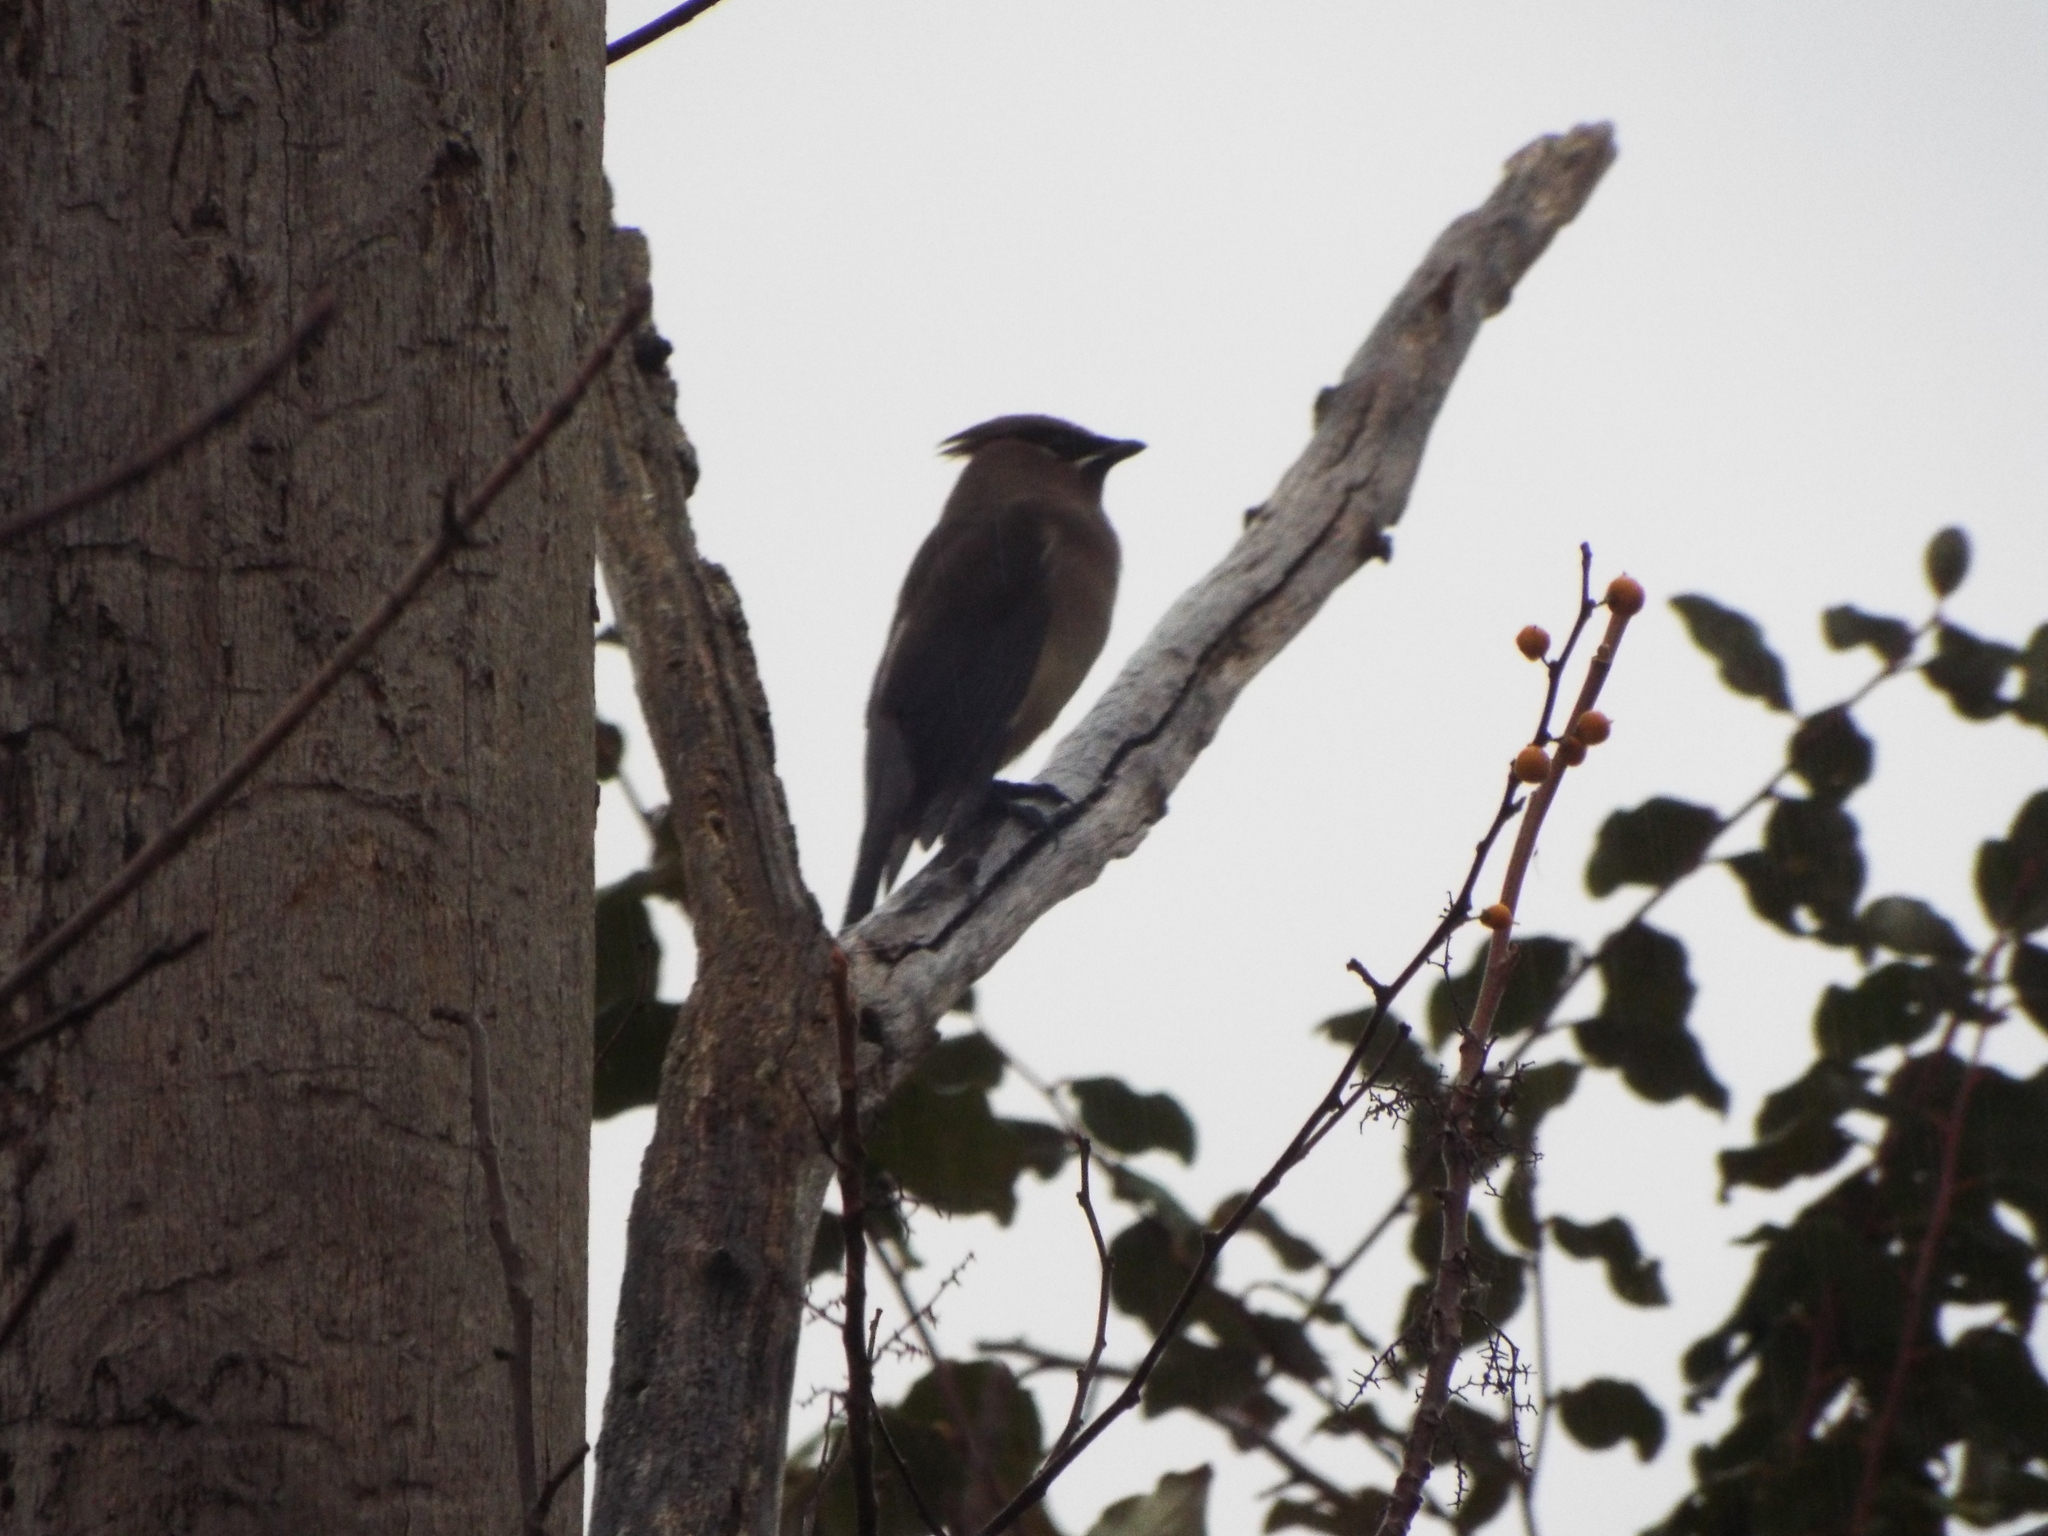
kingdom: Animalia
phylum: Chordata
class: Aves
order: Passeriformes
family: Bombycillidae
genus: Bombycilla
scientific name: Bombycilla cedrorum
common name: Cedar waxwing
